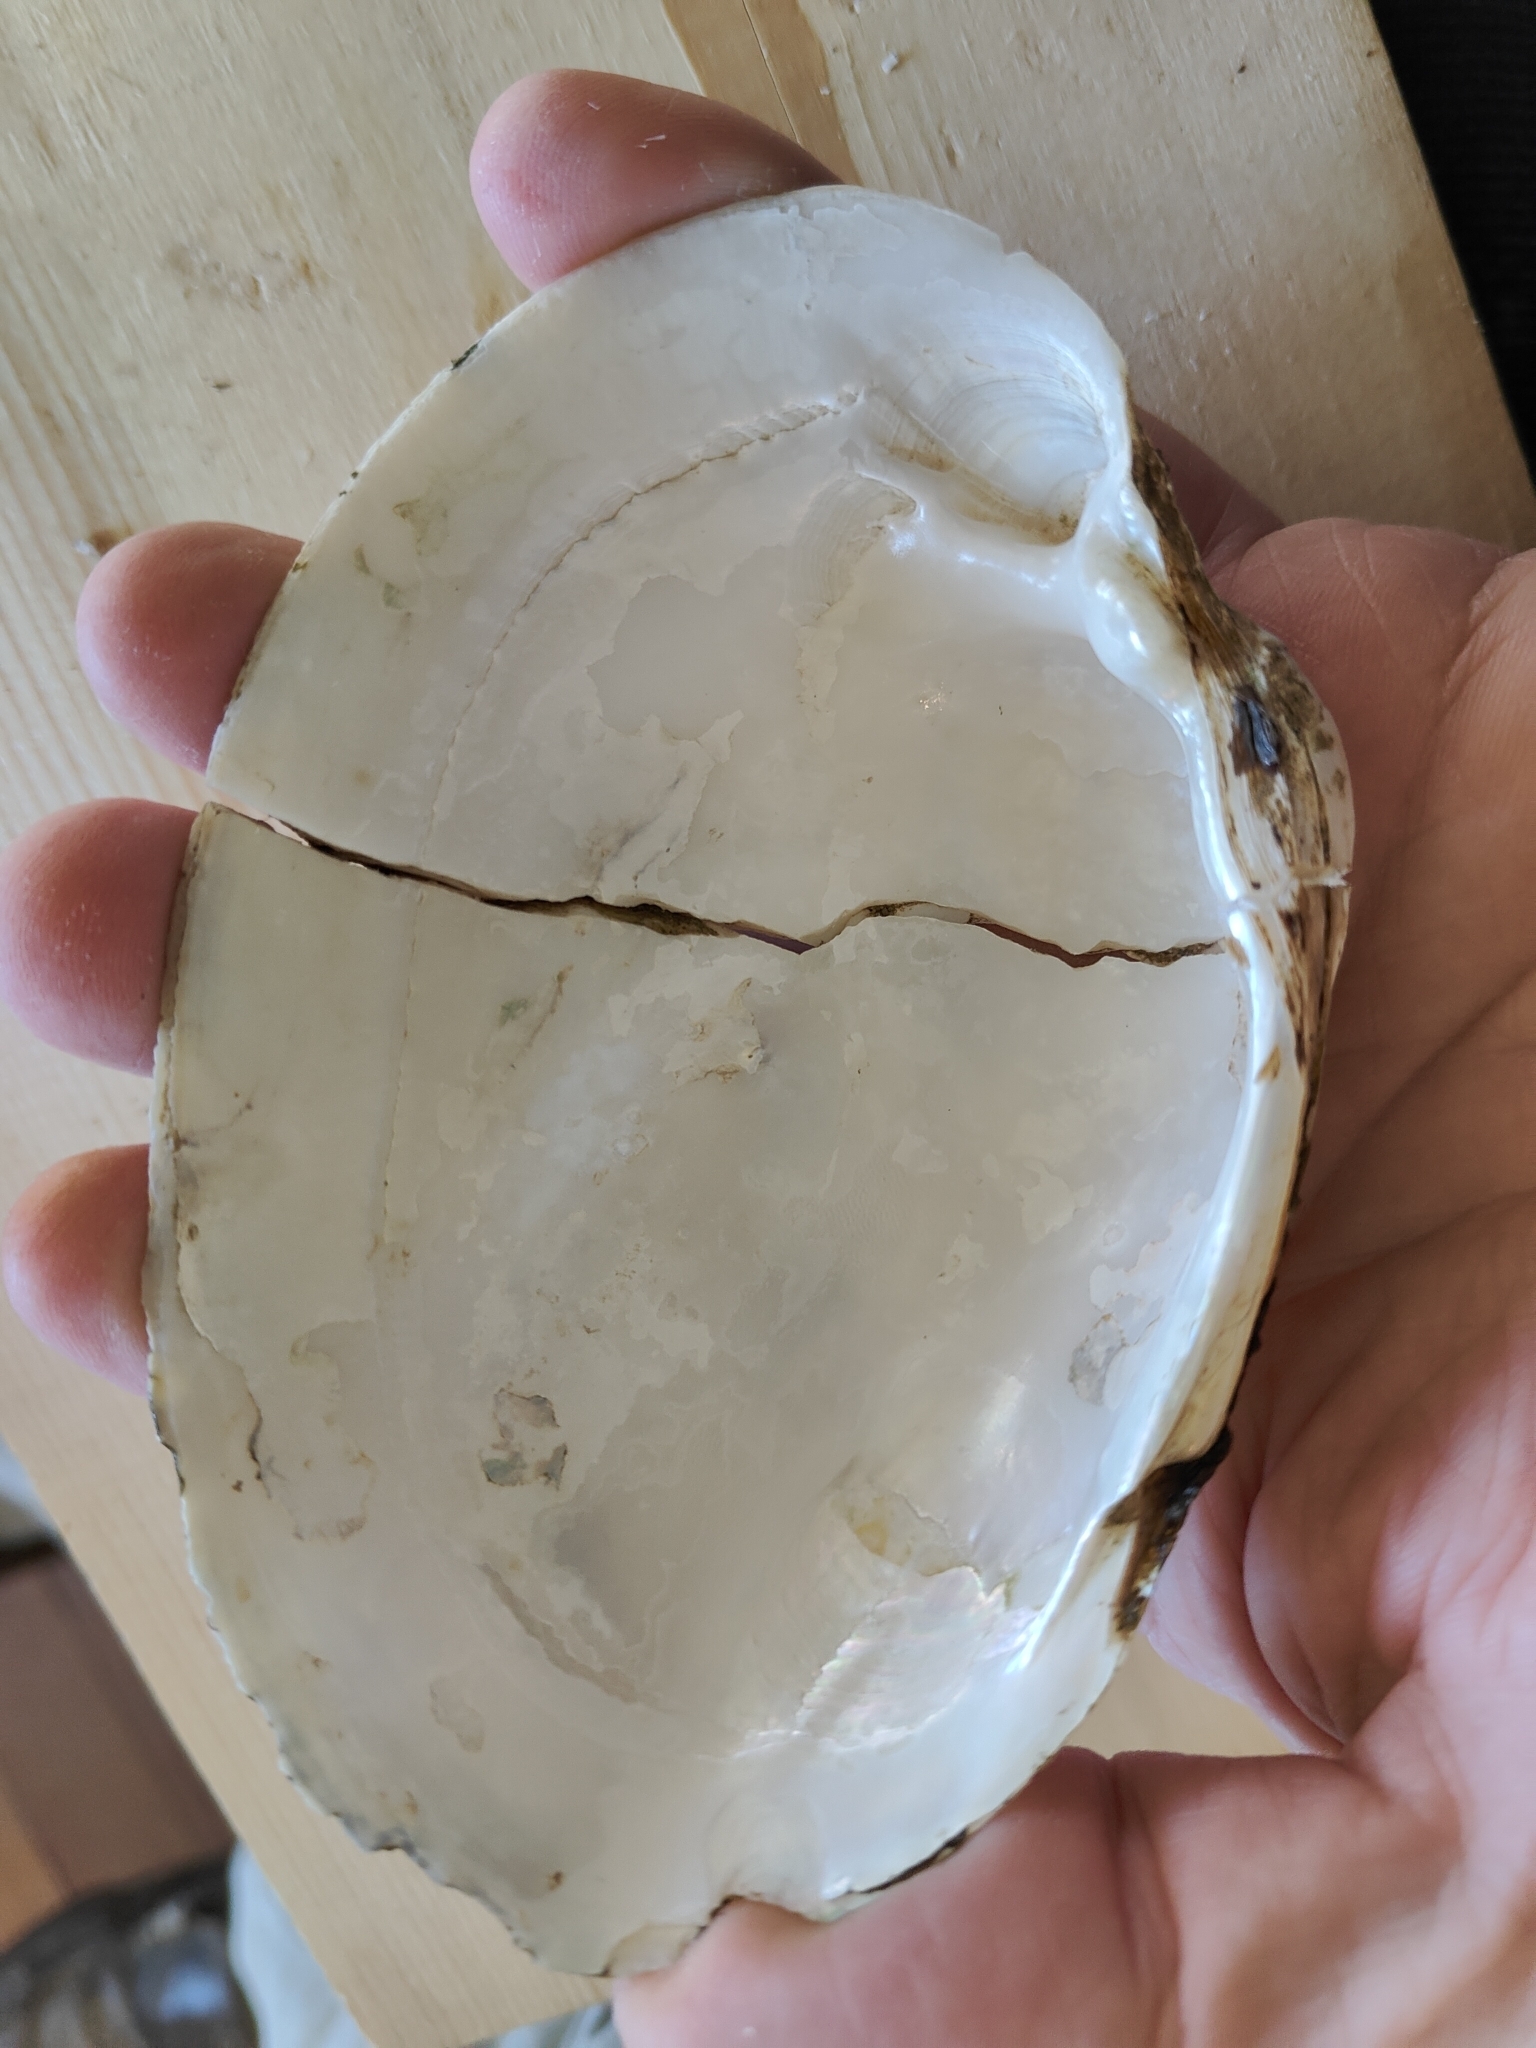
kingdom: Animalia
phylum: Mollusca
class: Bivalvia
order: Unionida
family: Unionidae
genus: Lampsilis
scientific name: Lampsilis cardium
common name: Plain pocketbook
